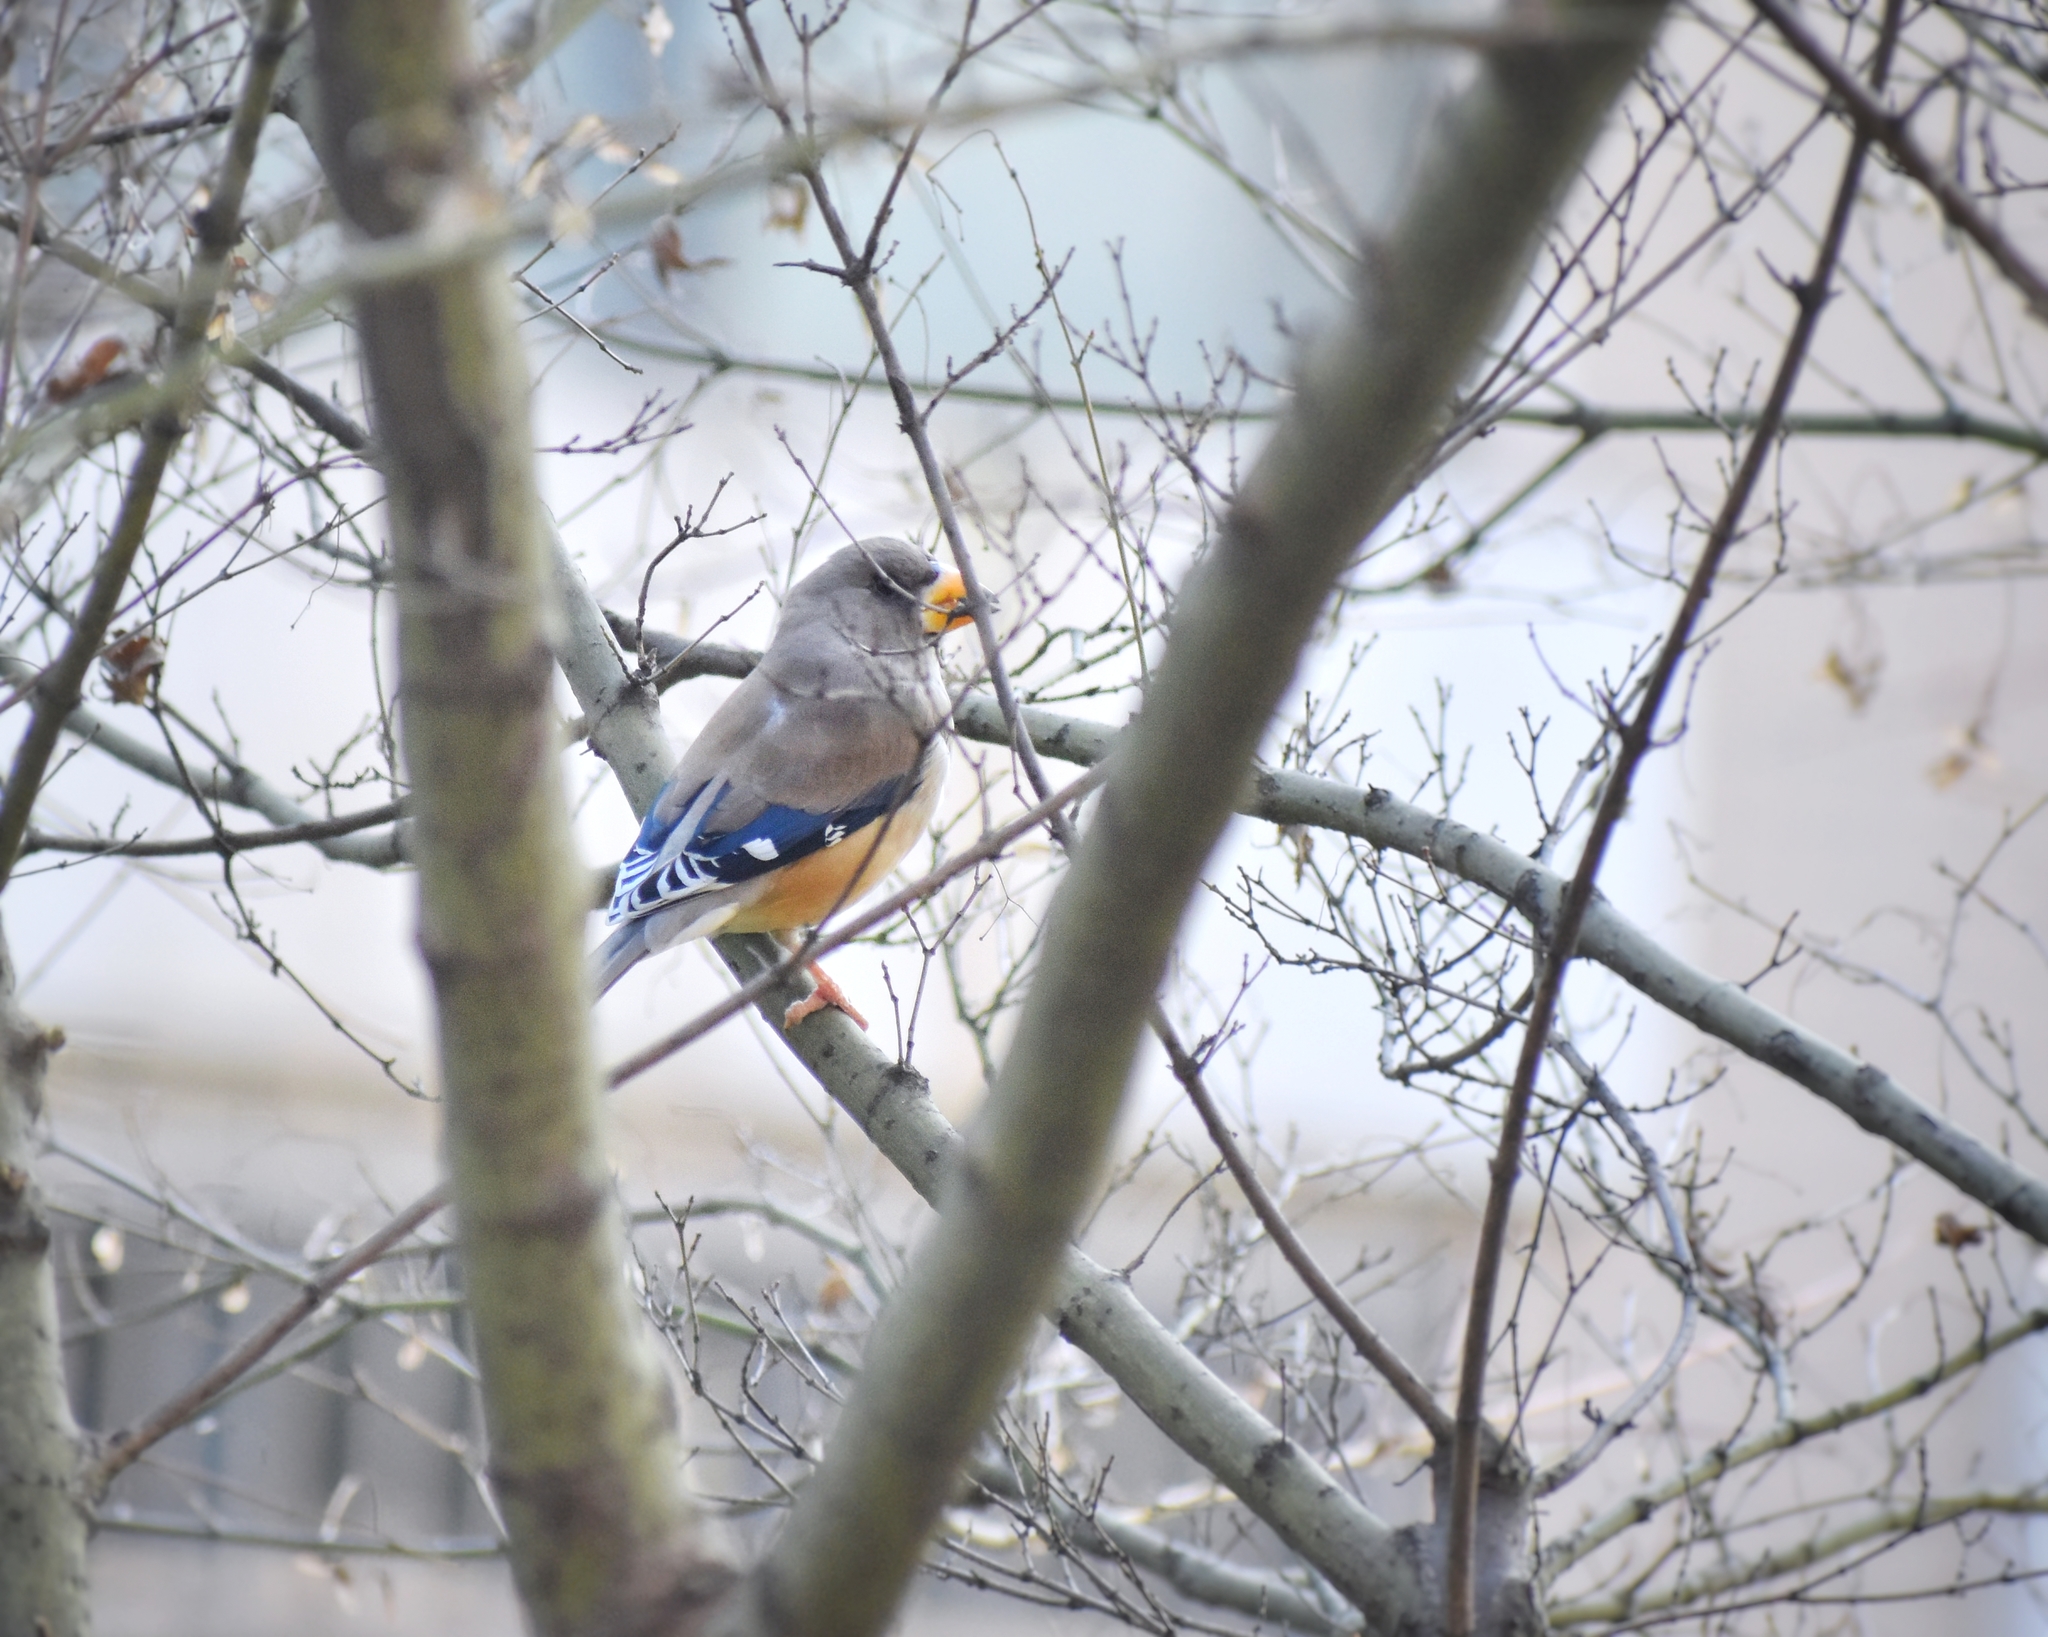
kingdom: Animalia
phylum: Chordata
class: Aves
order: Passeriformes
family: Fringillidae
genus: Eophona
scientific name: Eophona migratoria
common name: Yellow-billed grosbeak
